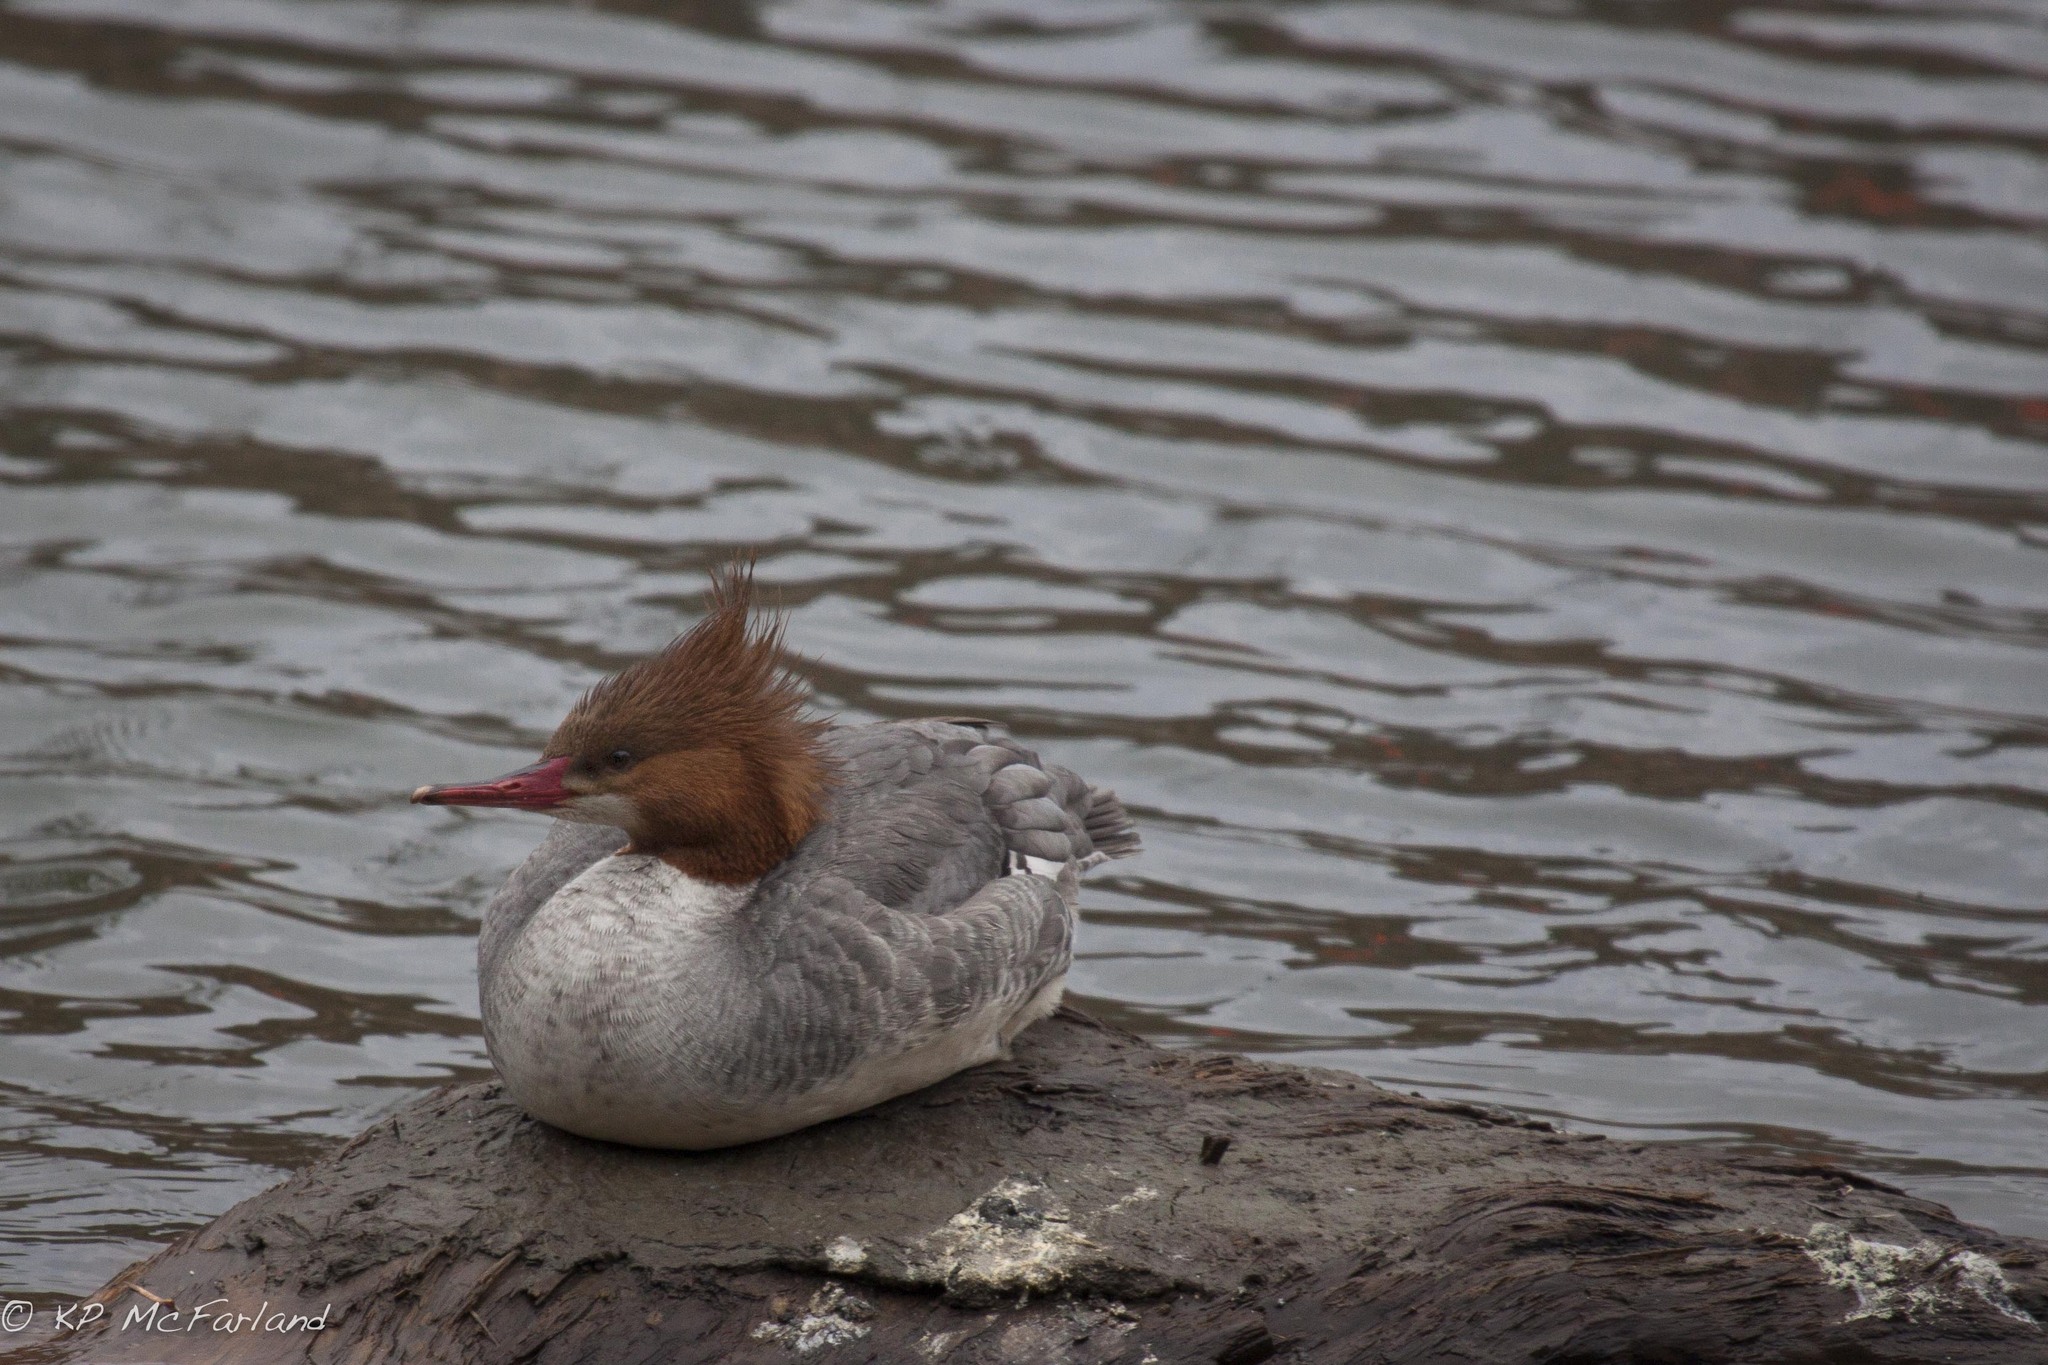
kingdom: Animalia
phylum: Chordata
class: Aves
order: Anseriformes
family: Anatidae
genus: Mergus
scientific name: Mergus merganser
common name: Common merganser
